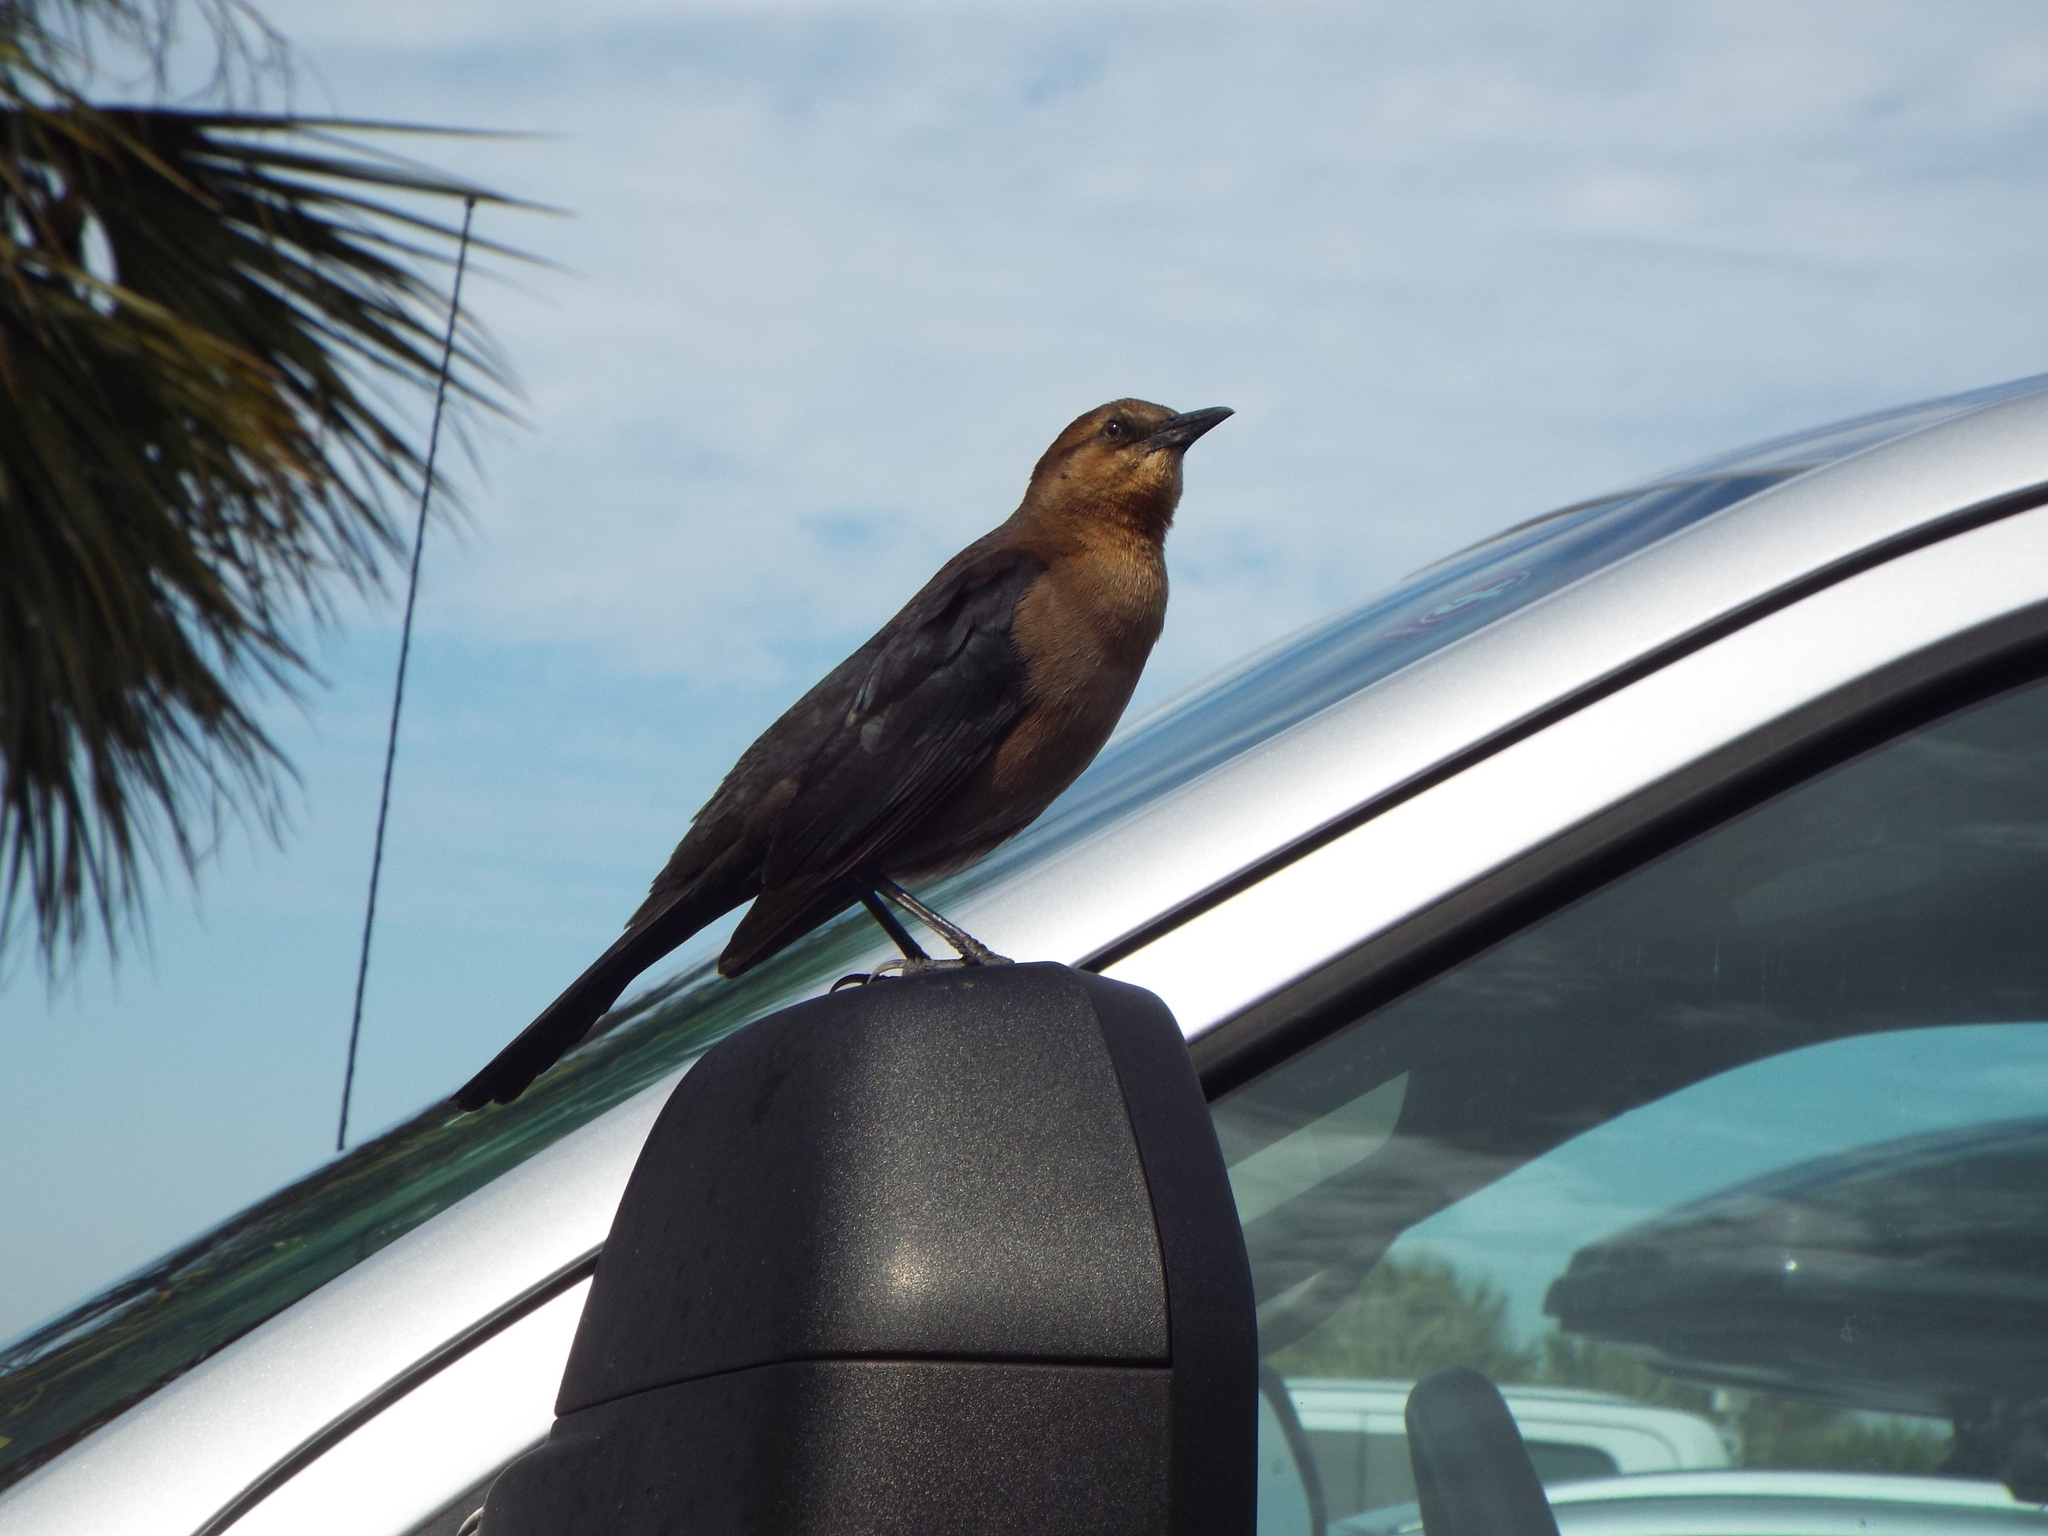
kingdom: Animalia
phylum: Chordata
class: Aves
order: Passeriformes
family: Icteridae
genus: Quiscalus
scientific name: Quiscalus major
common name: Boat-tailed grackle
